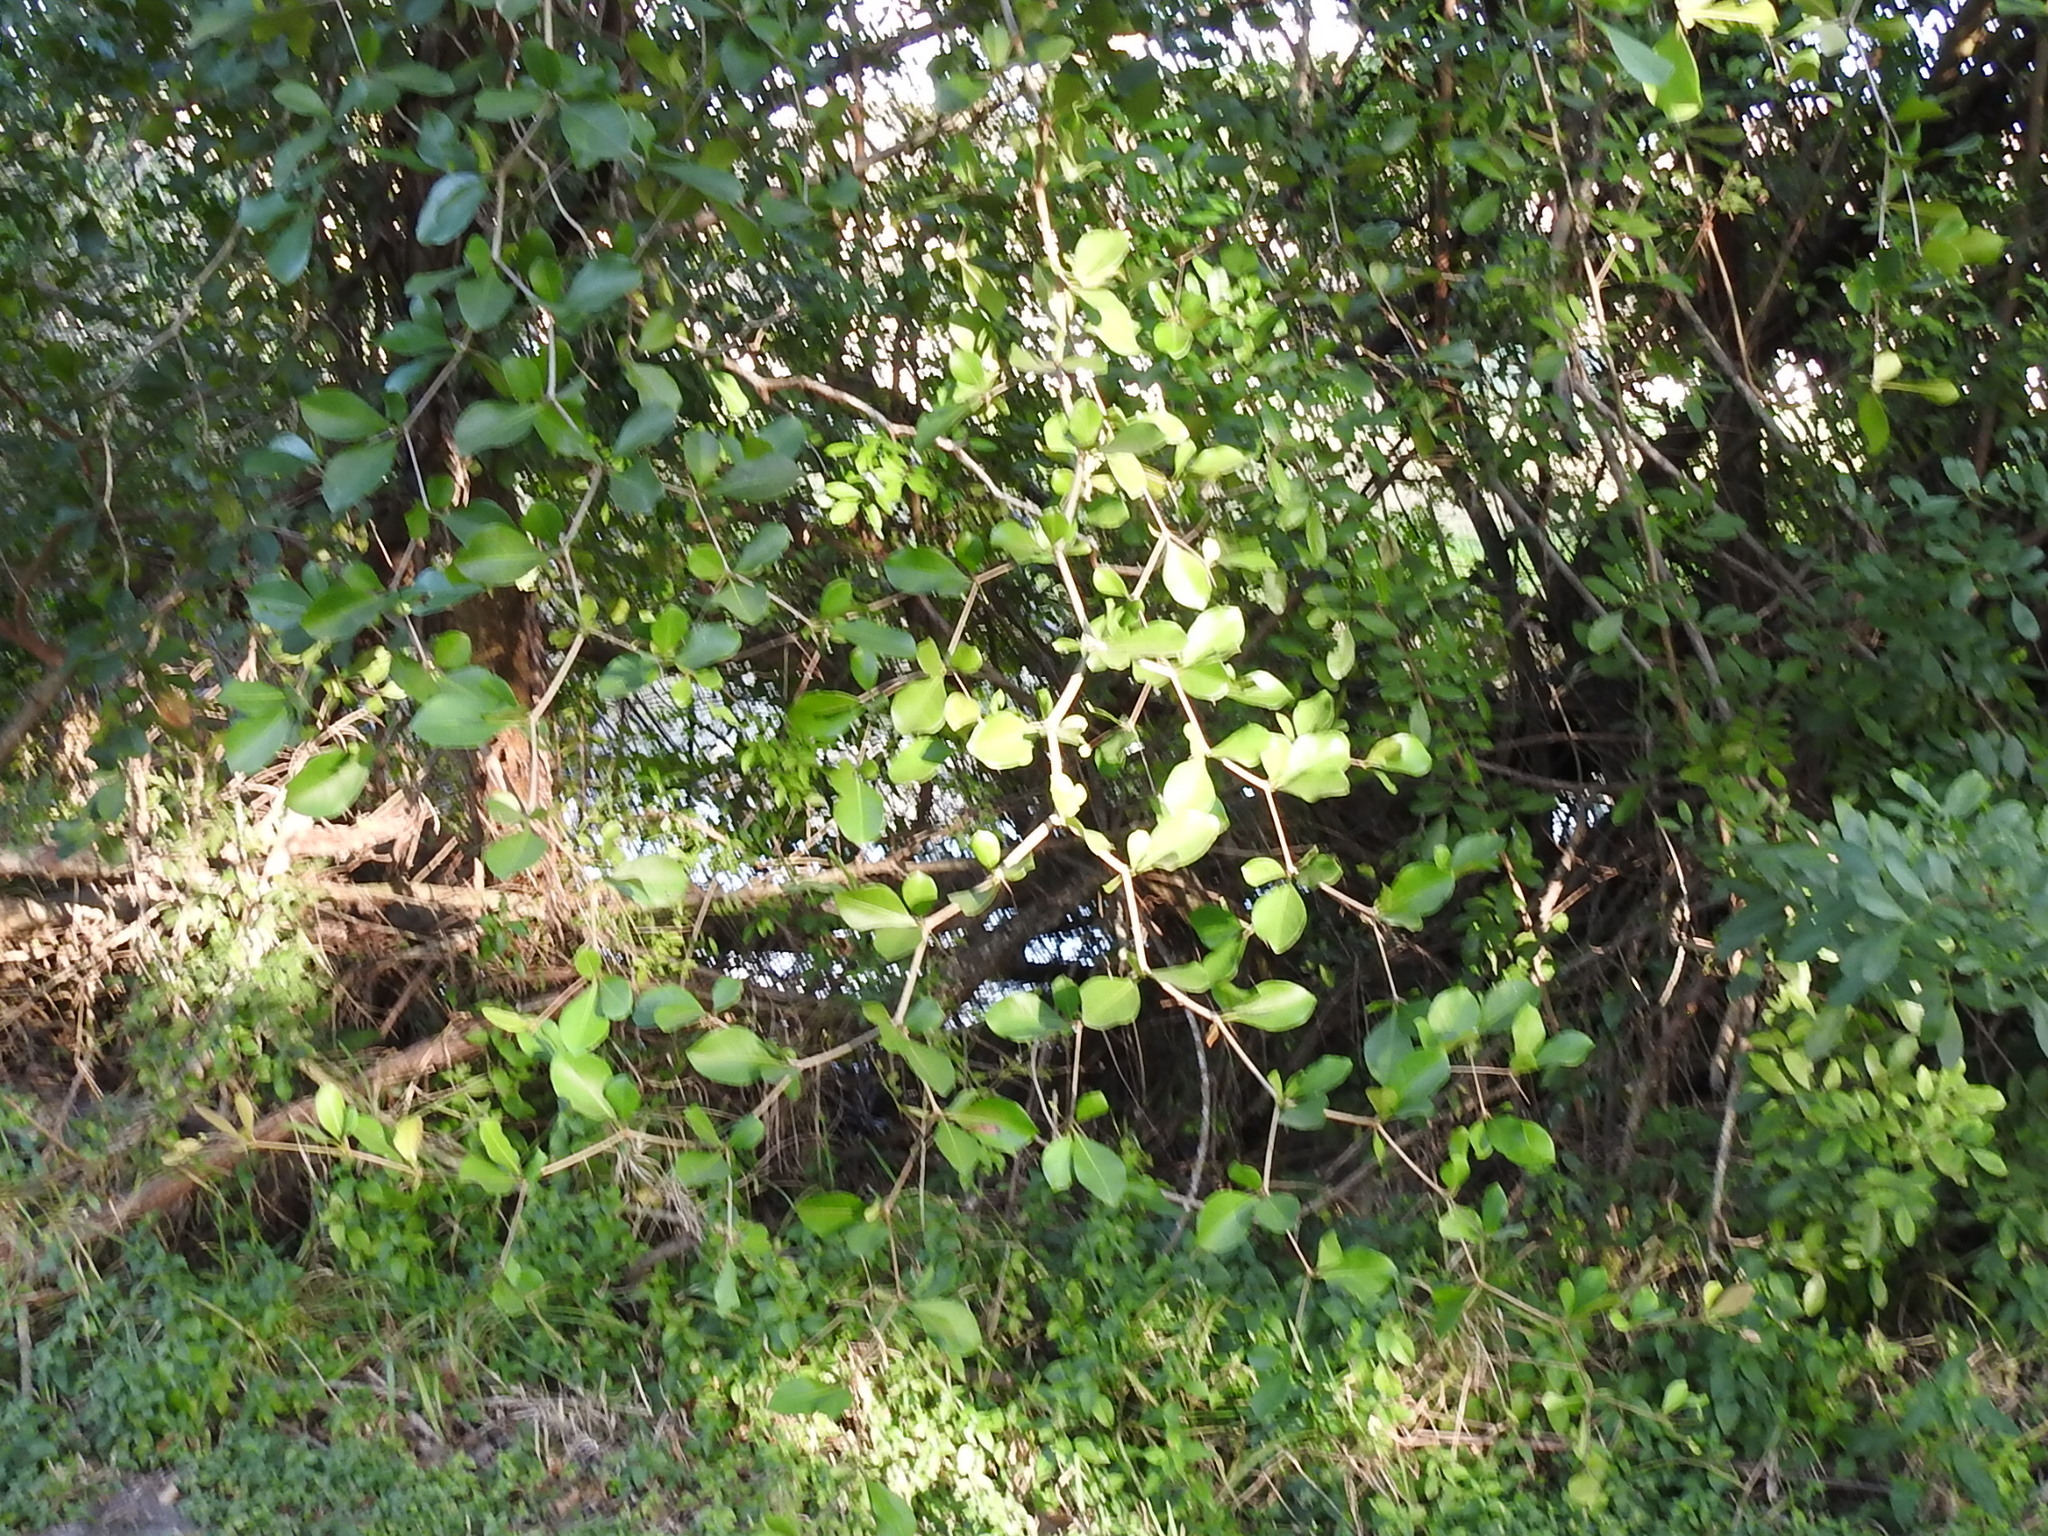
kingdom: Plantae
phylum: Tracheophyta
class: Magnoliopsida
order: Myrtales
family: Combretaceae
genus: Terminalia
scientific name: Terminalia buceras
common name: Black-olive
